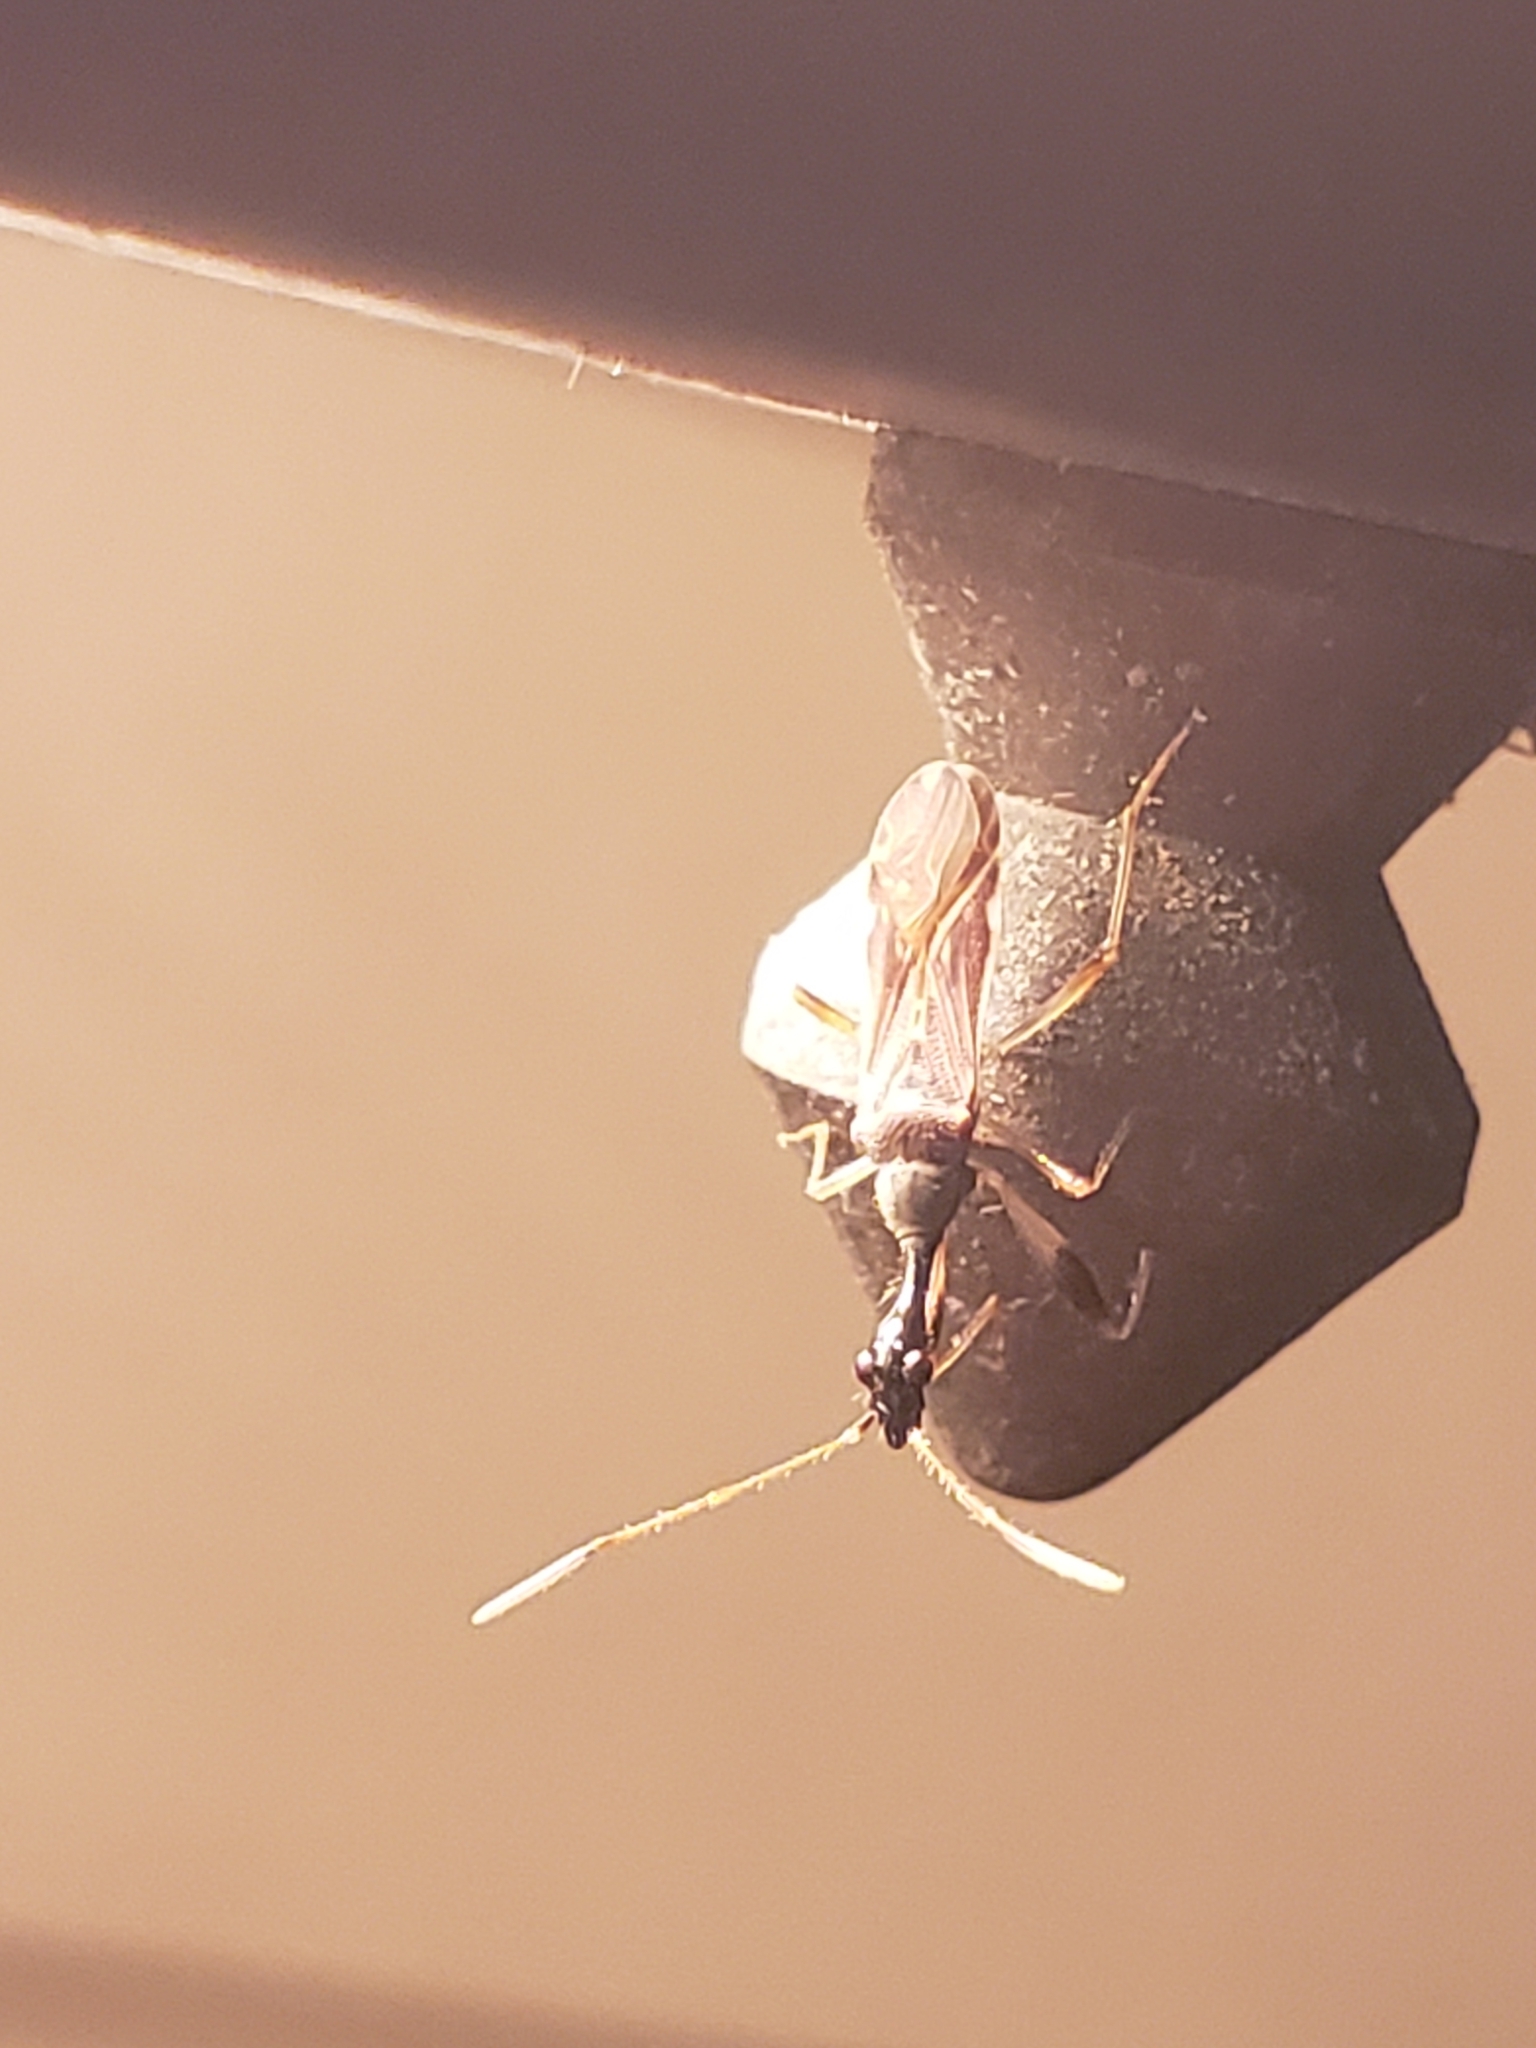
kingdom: Animalia
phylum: Arthropoda
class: Insecta
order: Hemiptera
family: Rhyparochromidae
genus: Myodocha
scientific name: Myodocha serripes
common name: Long-necked seed bug
